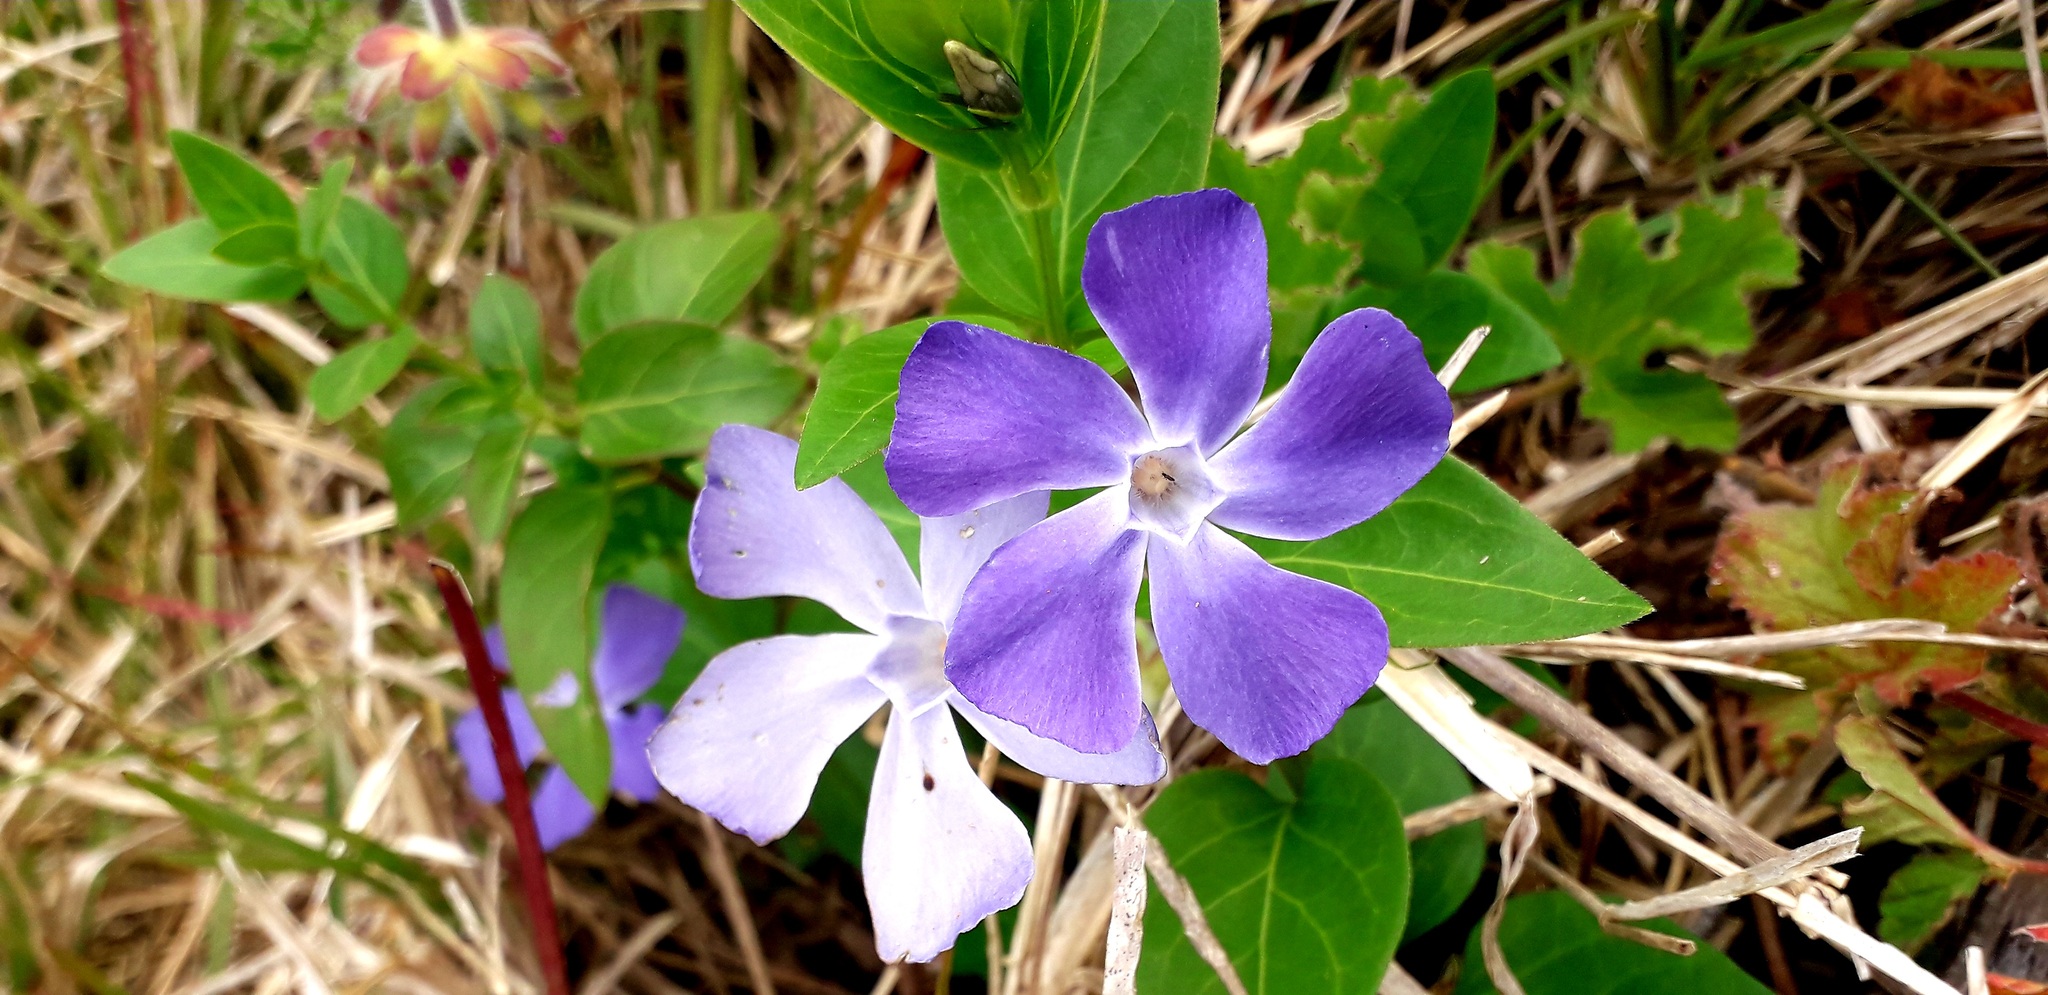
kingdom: Plantae
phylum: Tracheophyta
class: Magnoliopsida
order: Gentianales
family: Apocynaceae
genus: Vinca
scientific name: Vinca major
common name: Greater periwinkle
